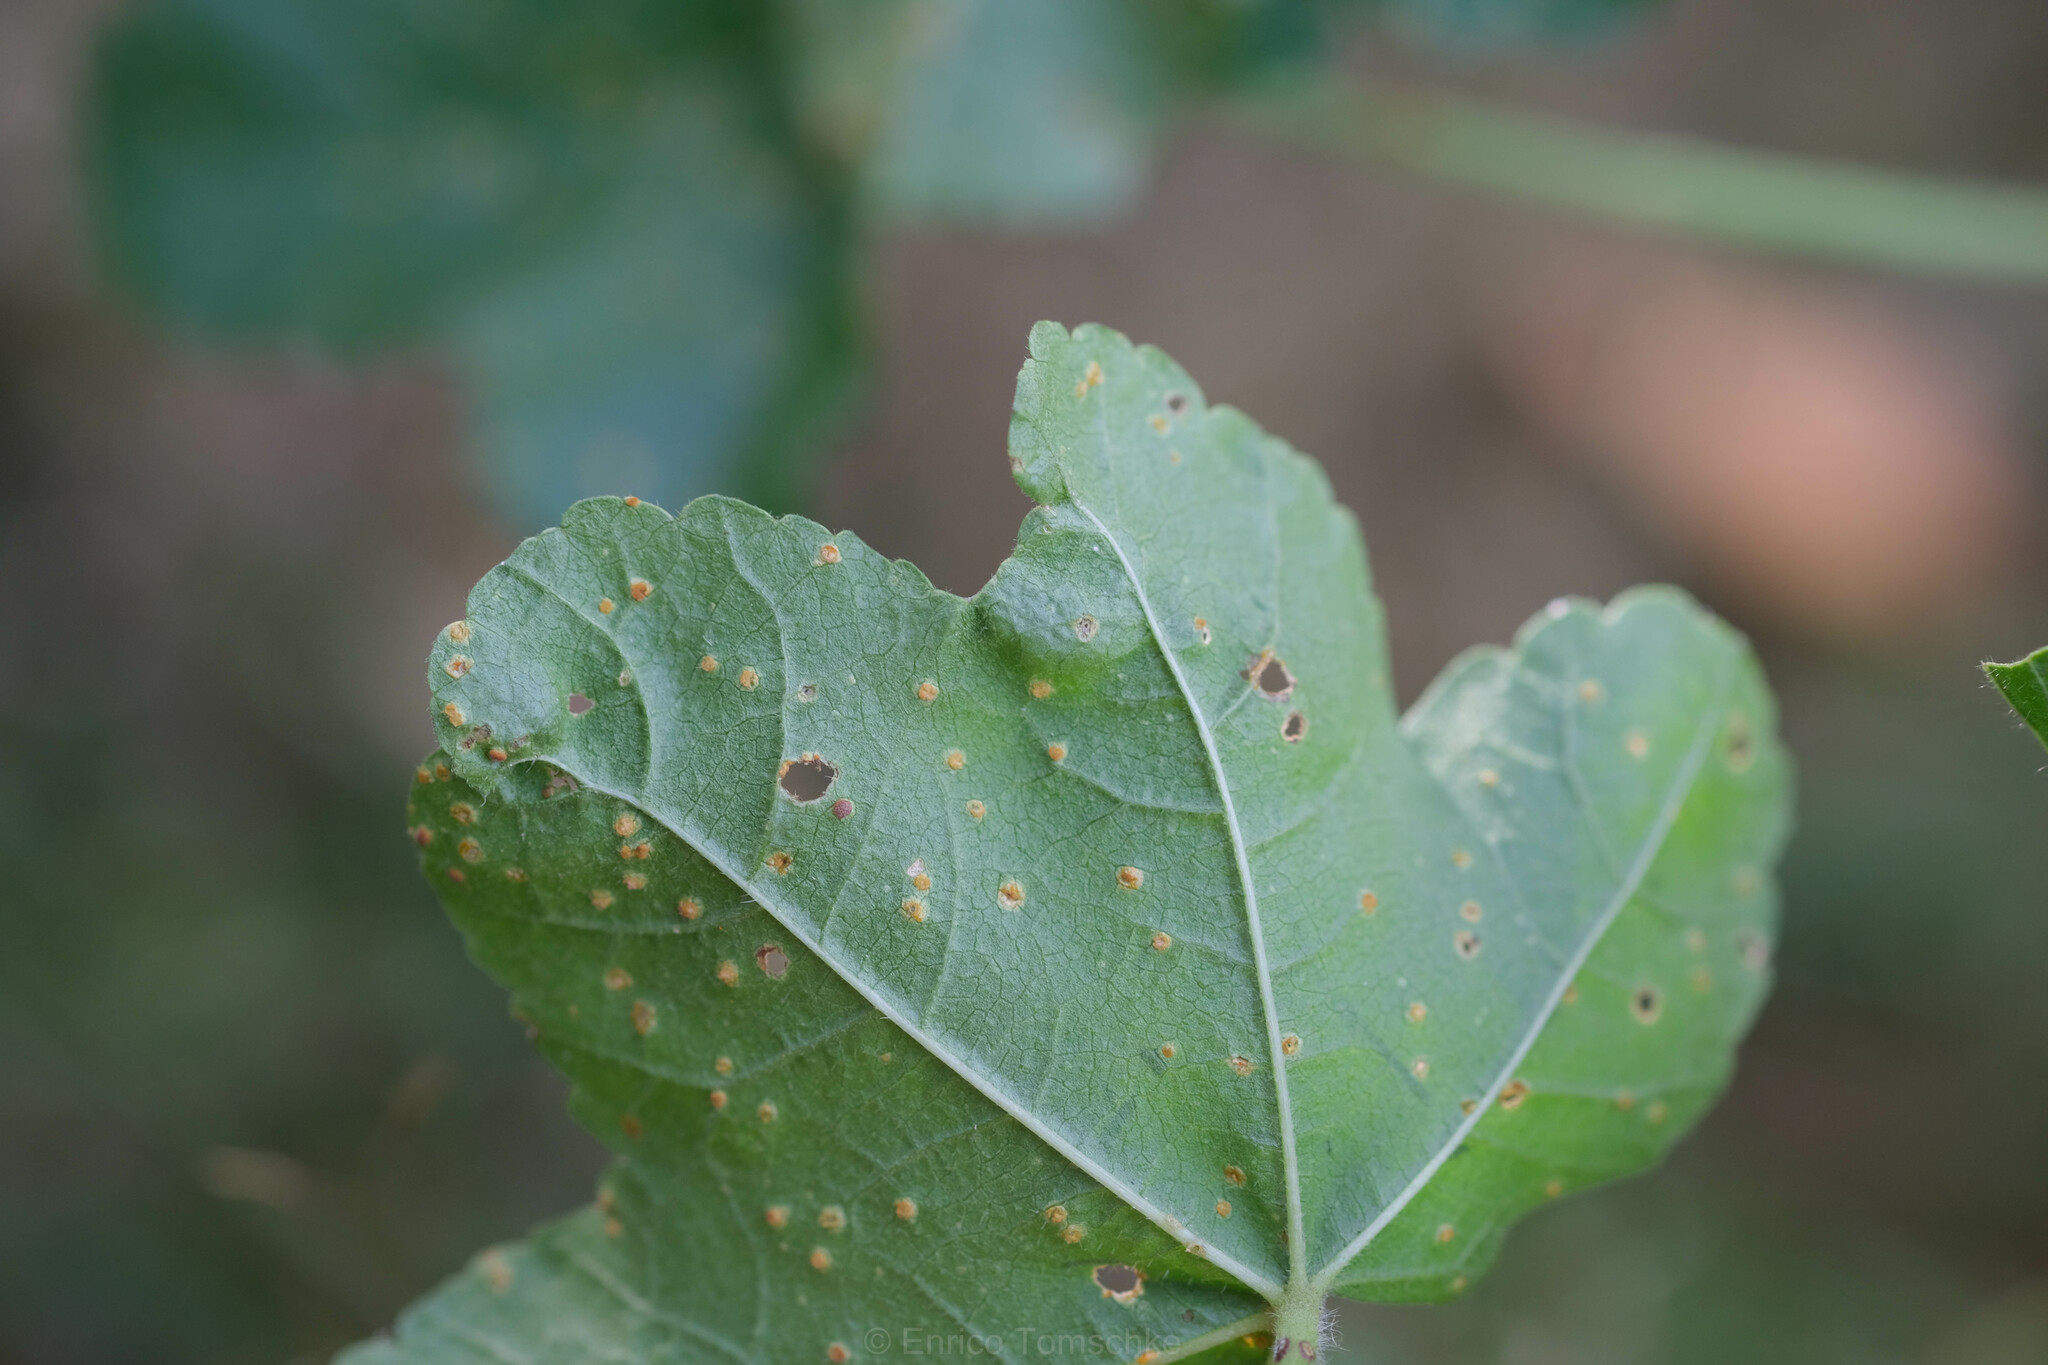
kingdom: Fungi
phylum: Basidiomycota
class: Pucciniomycetes
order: Pucciniales
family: Pucciniaceae
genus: Puccinia
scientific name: Puccinia malvacearum
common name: Hollyhock rust
